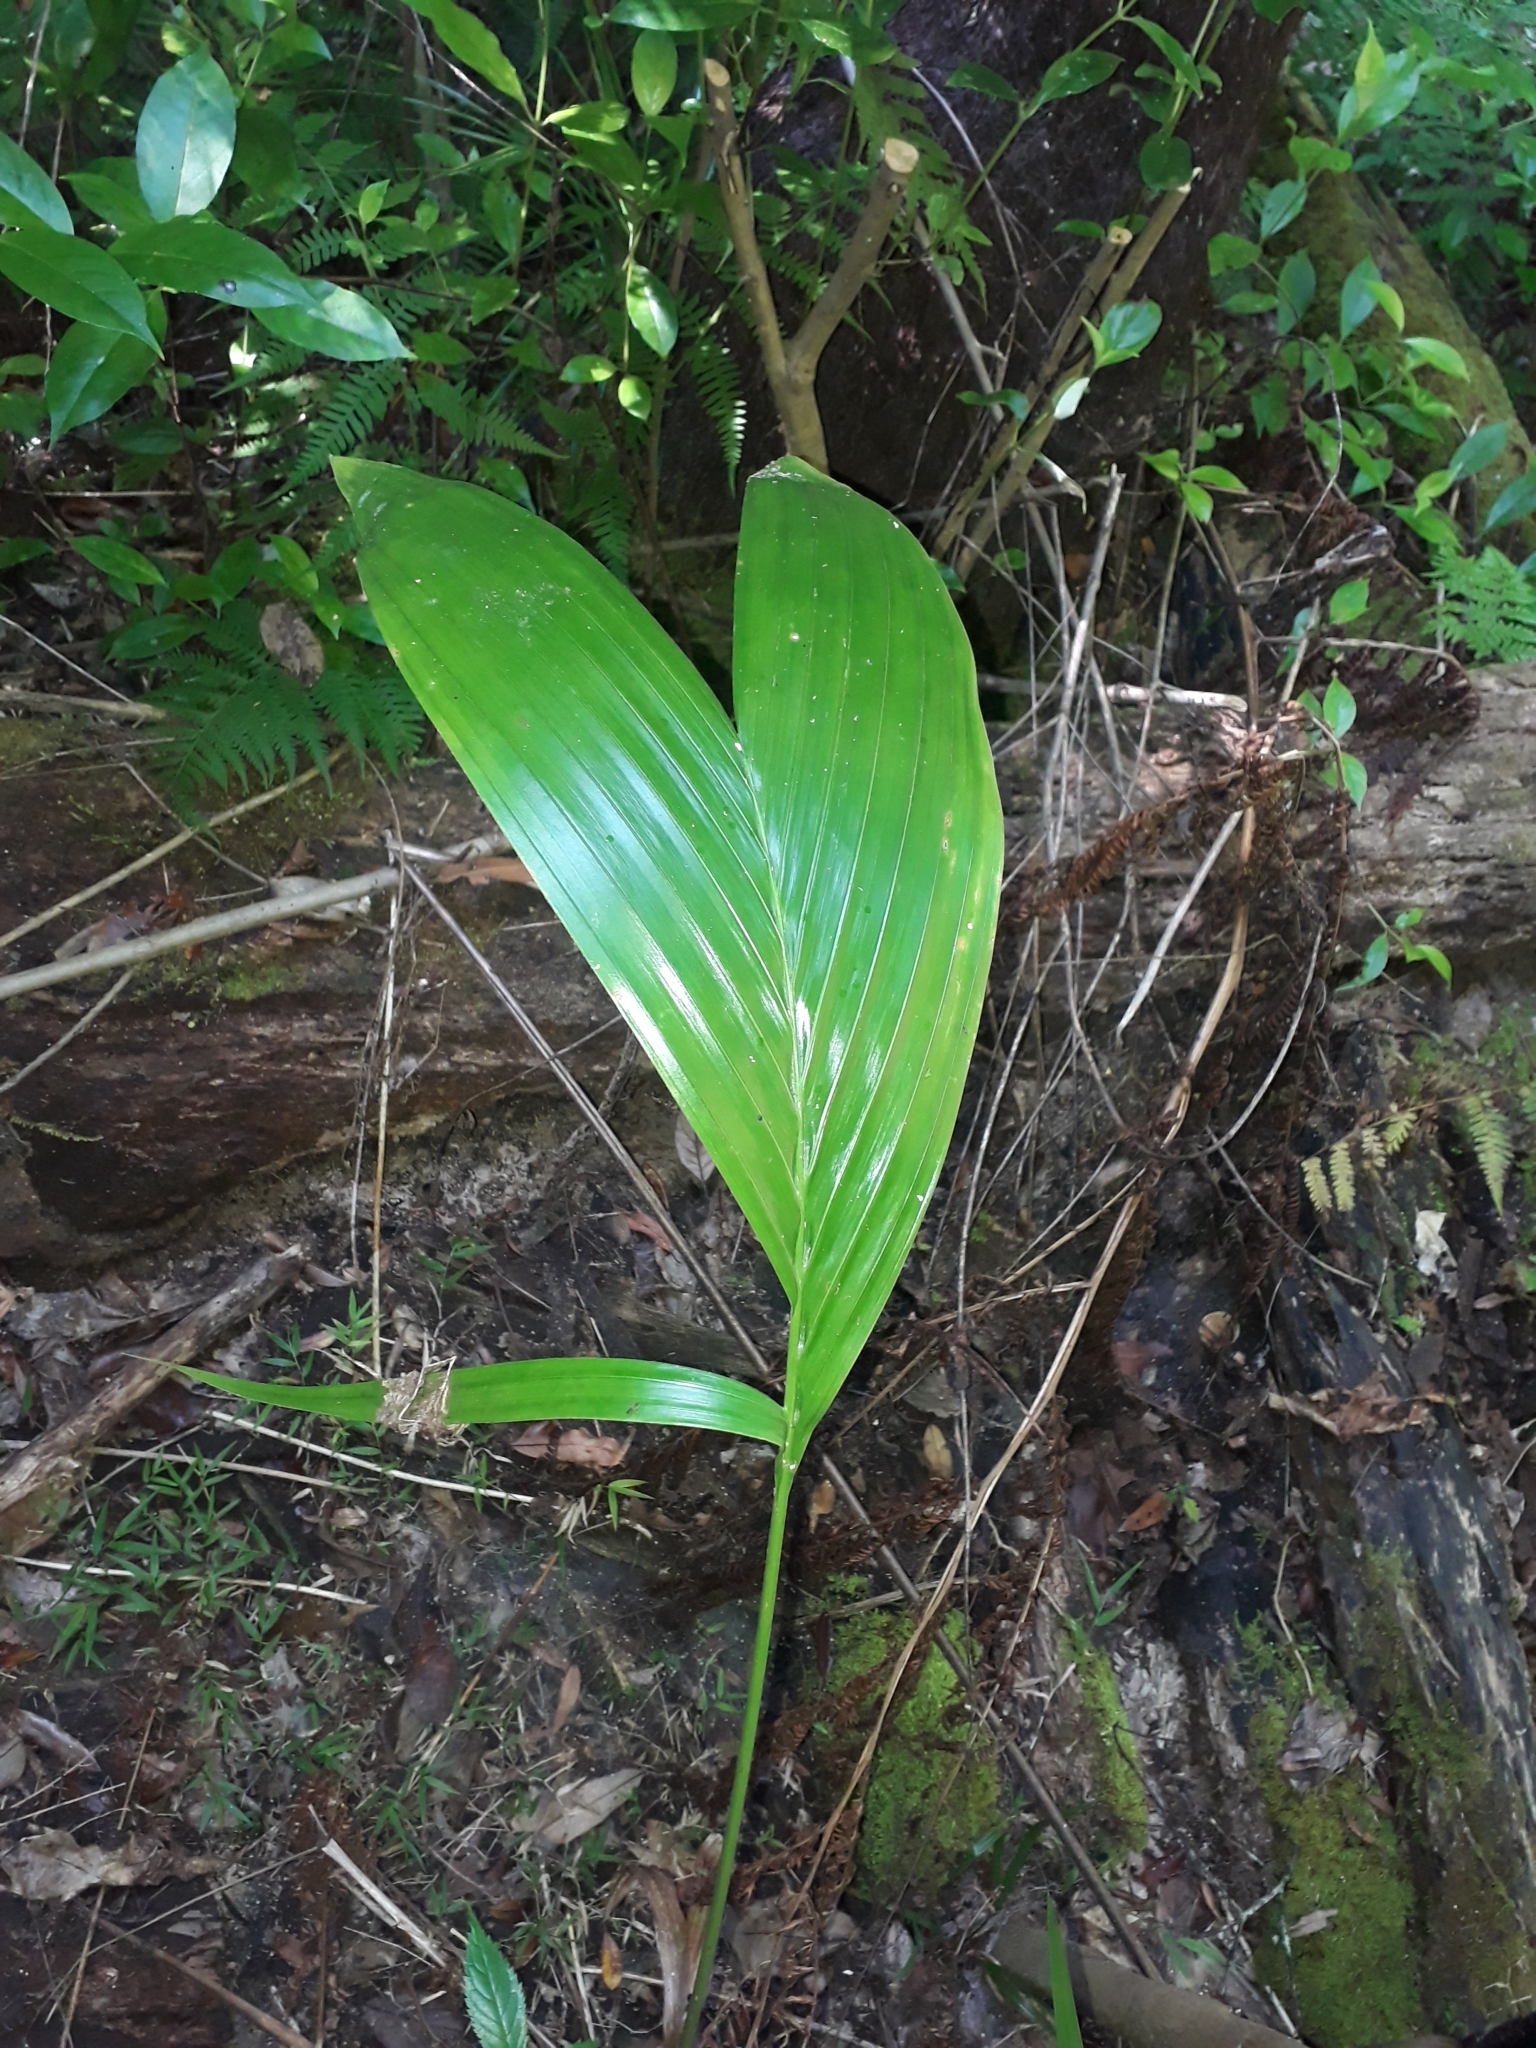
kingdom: Plantae
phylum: Tracheophyta
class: Liliopsida
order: Arecales
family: Arecaceae
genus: Archontophoenix
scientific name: Archontophoenix cunninghamiana
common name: Piccabeen bangalow palm
